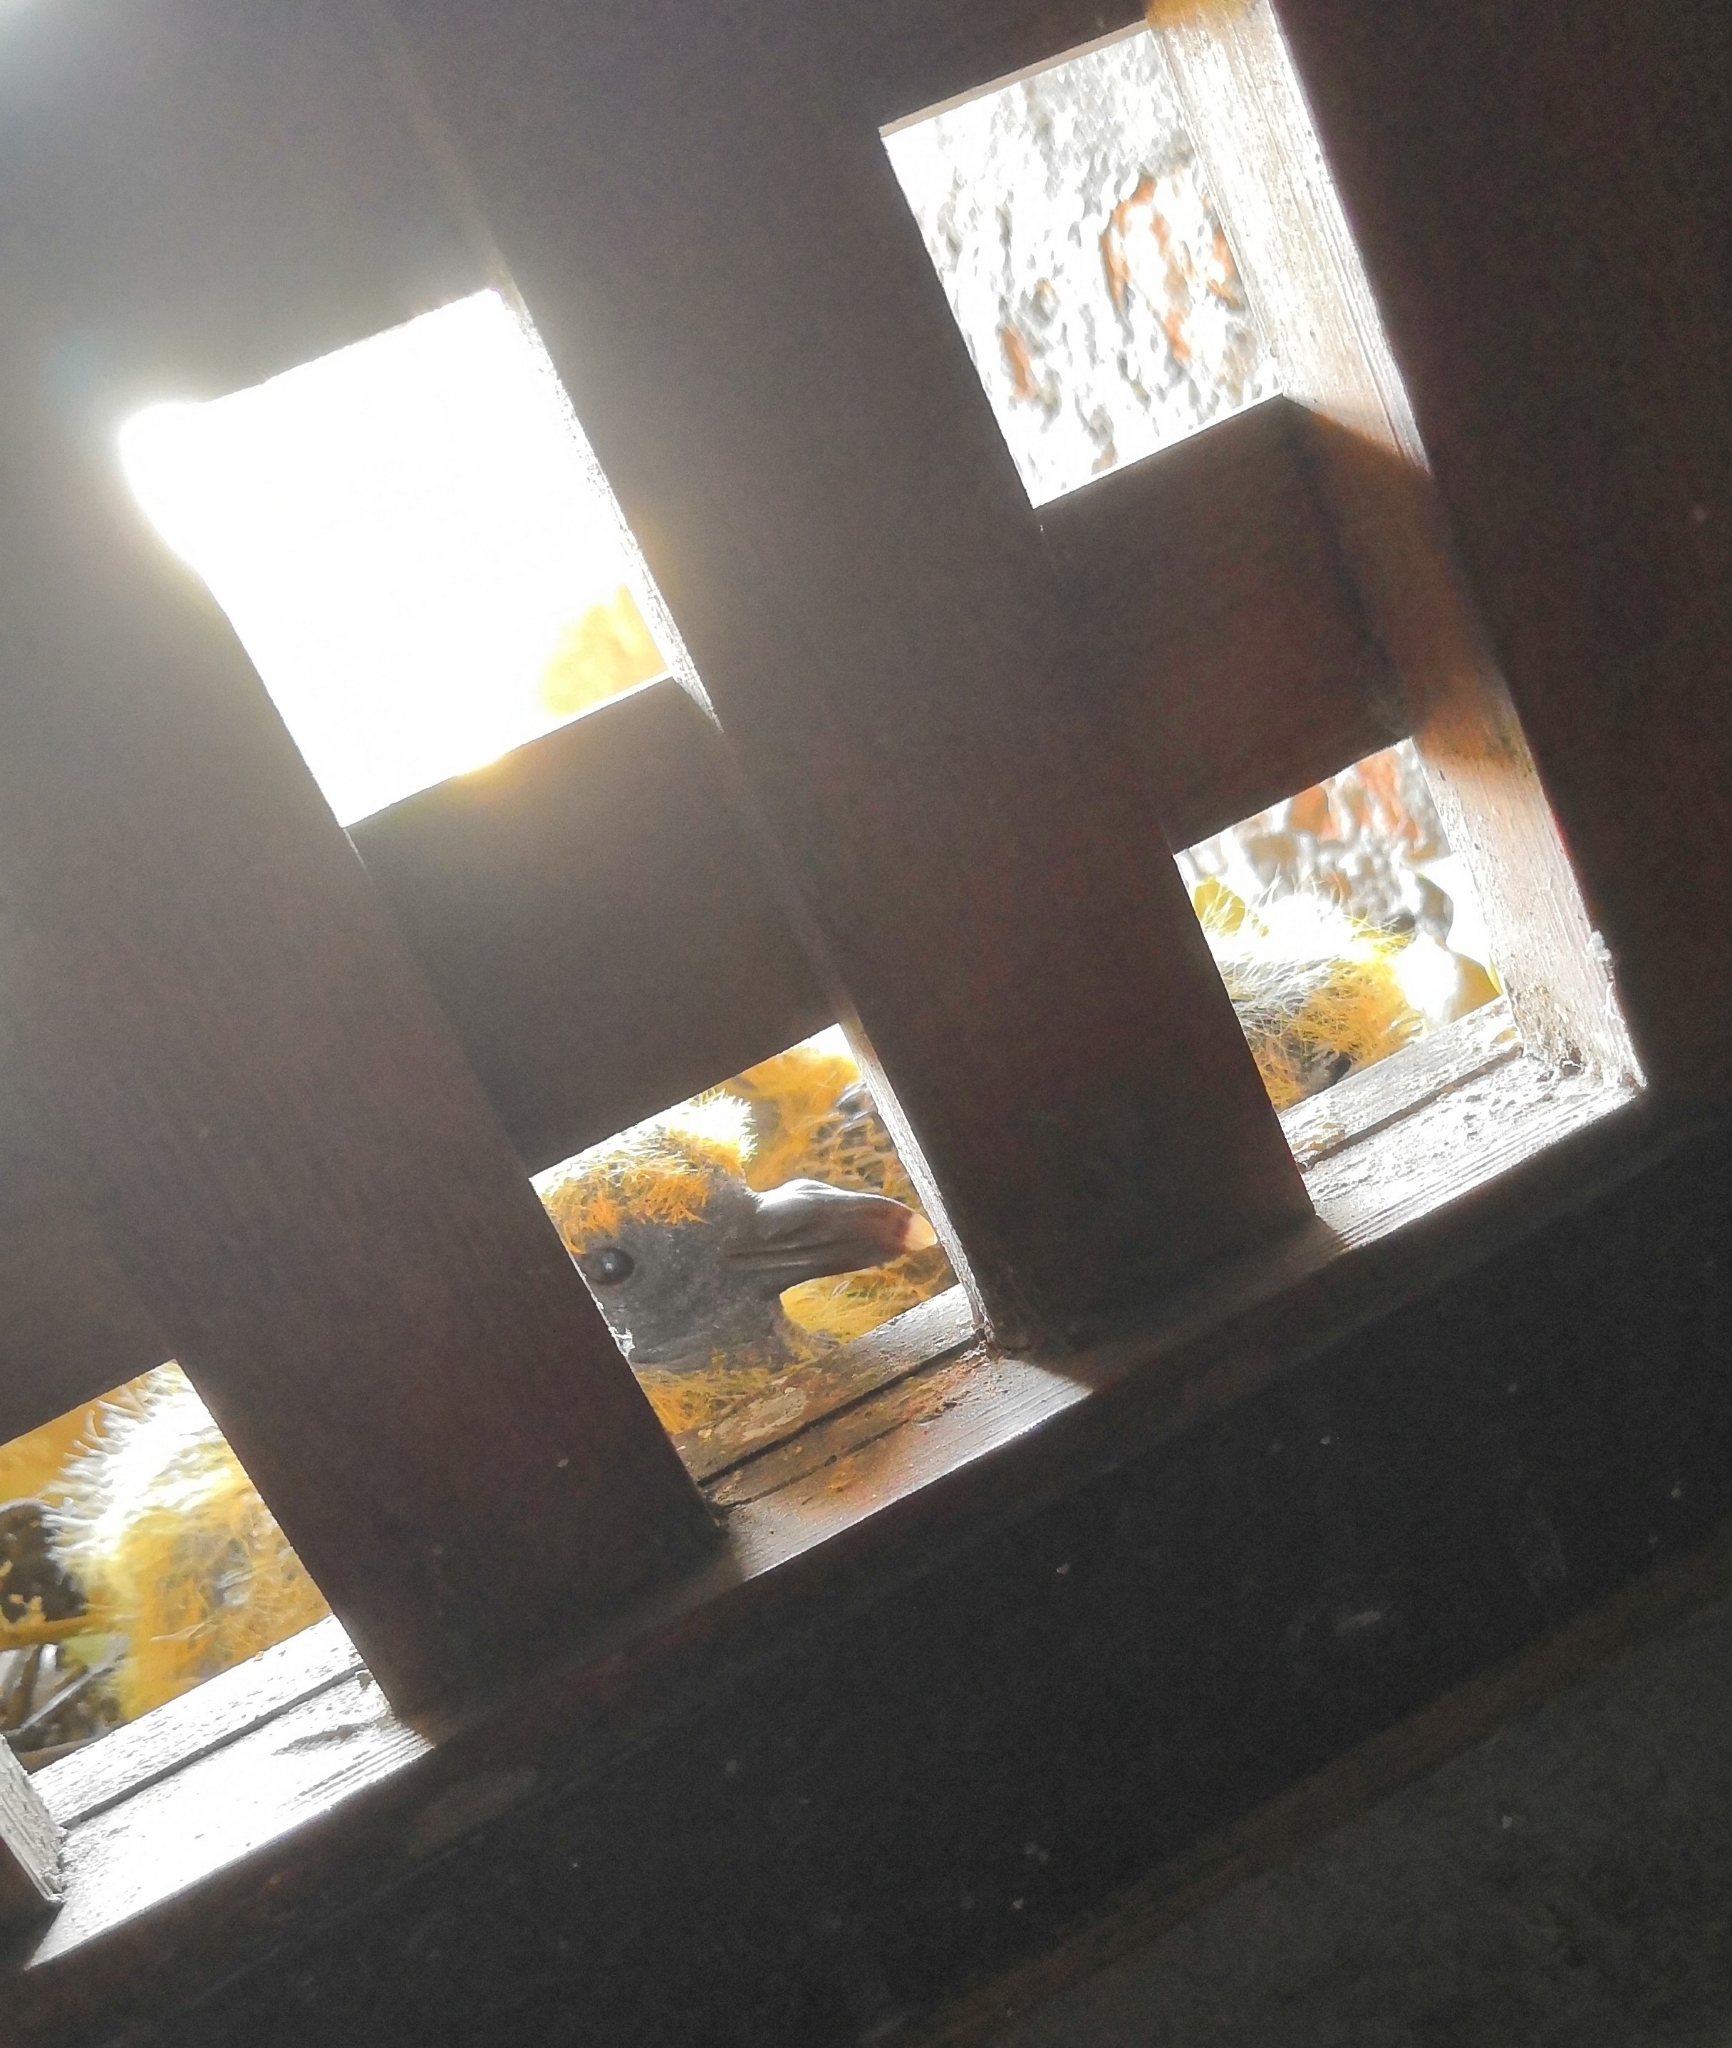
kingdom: Animalia
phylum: Chordata
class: Aves
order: Columbiformes
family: Columbidae
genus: Columba
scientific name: Columba livia
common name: Rock pigeon
